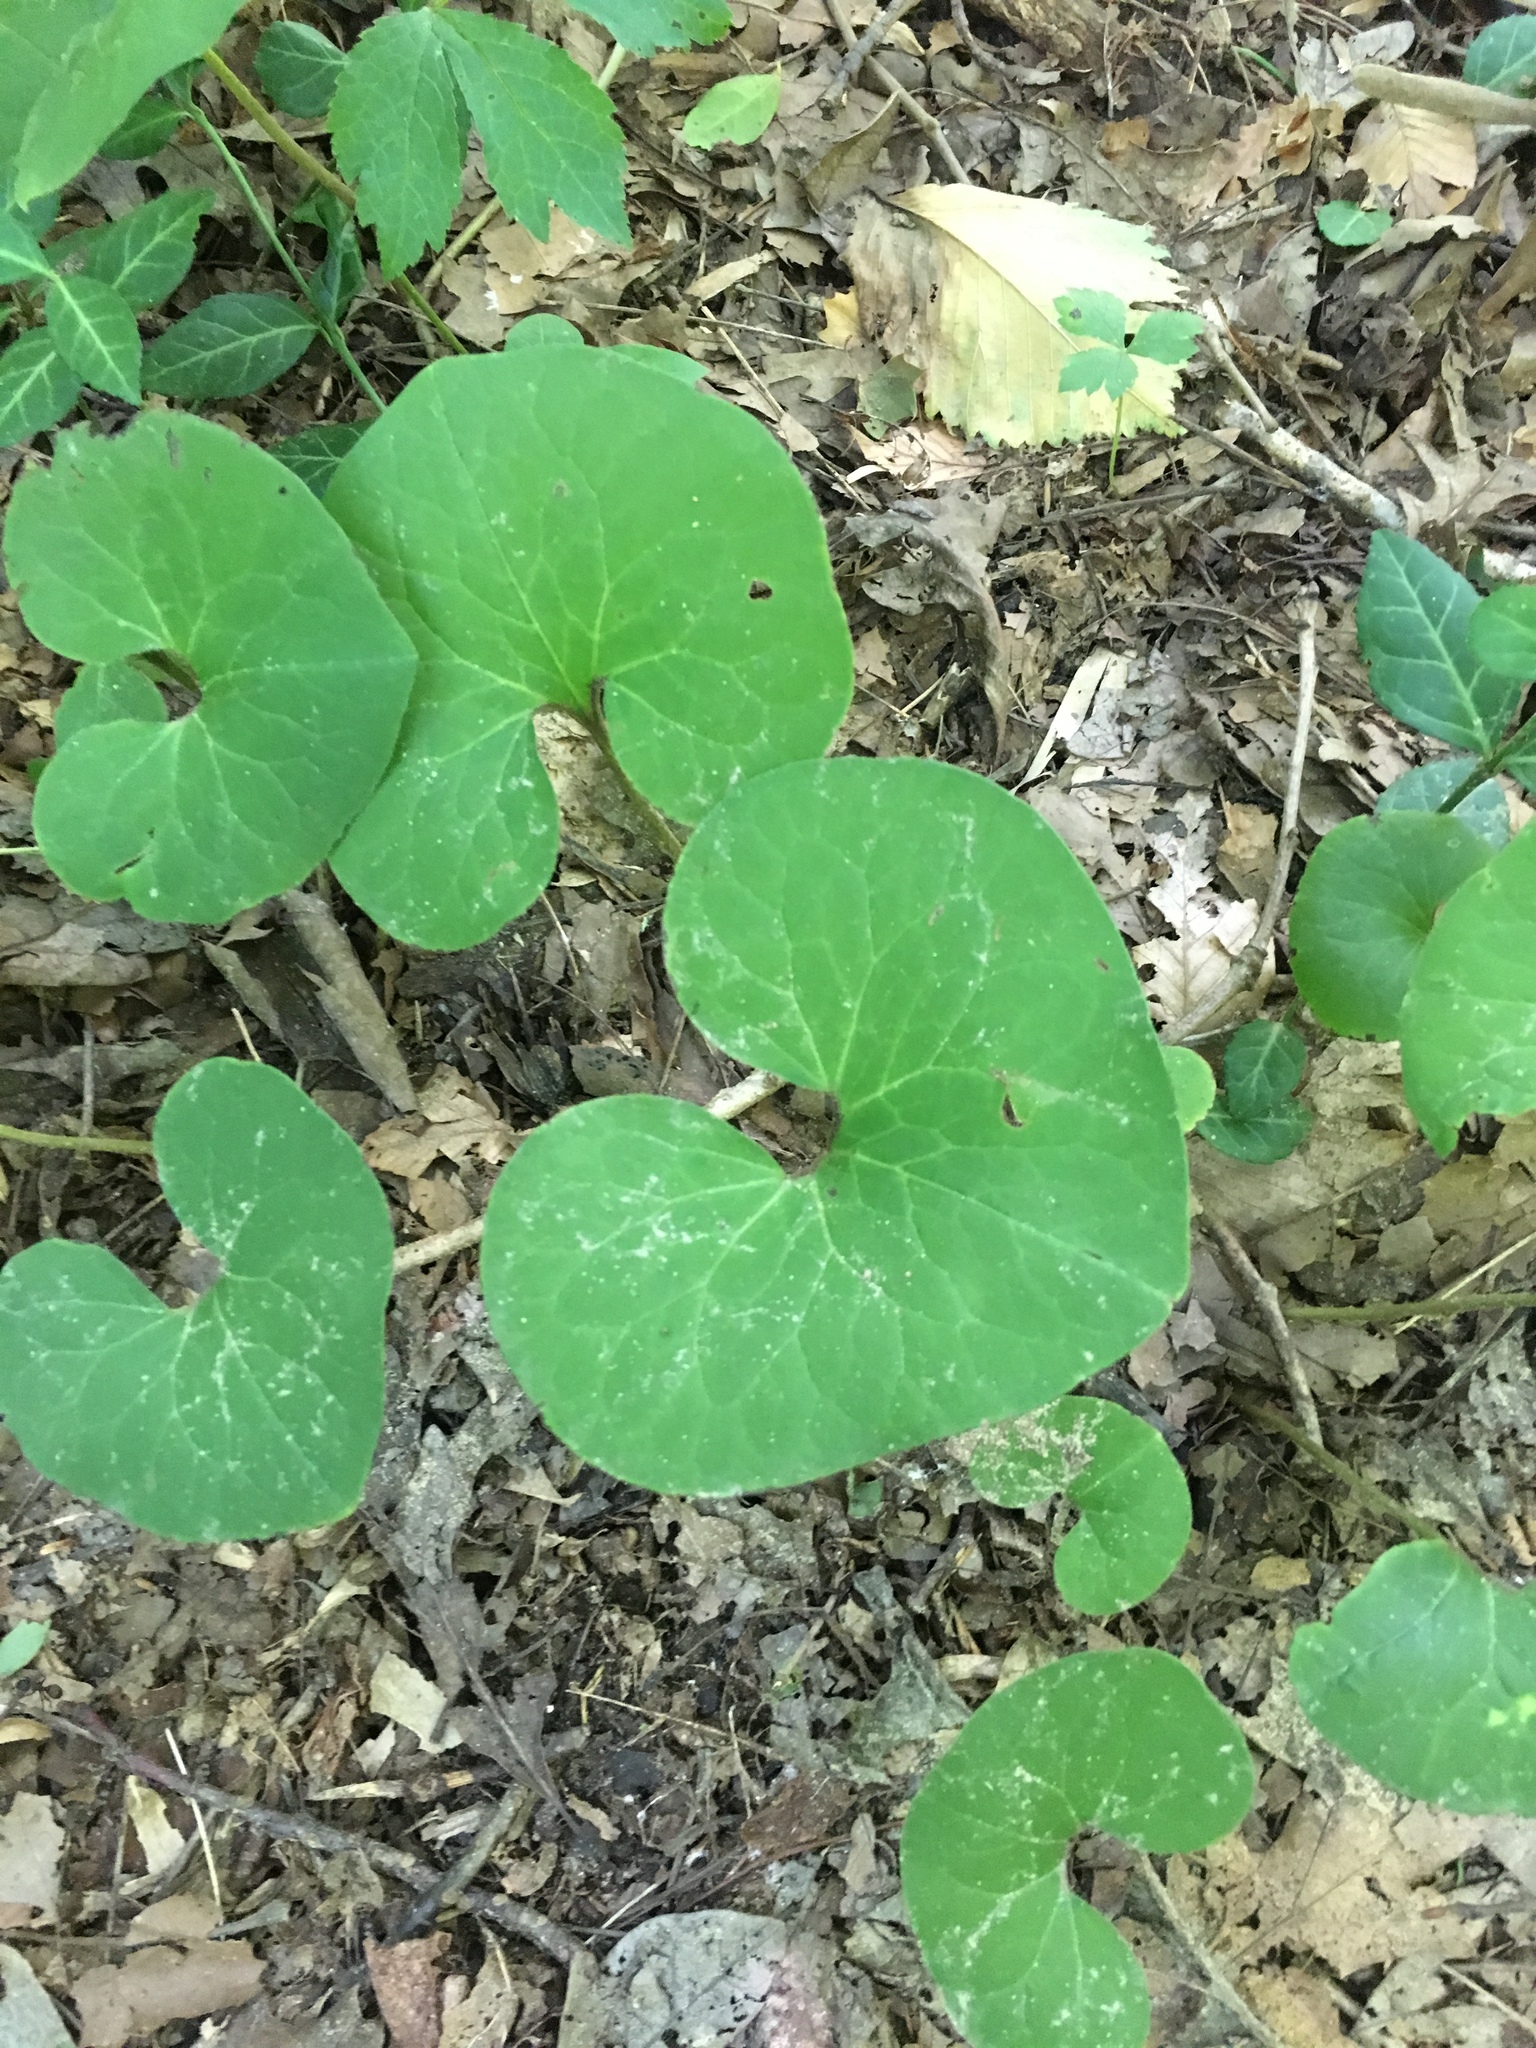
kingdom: Plantae
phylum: Tracheophyta
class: Magnoliopsida
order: Piperales
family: Aristolochiaceae
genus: Asarum
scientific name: Asarum canadense
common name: Wild ginger
